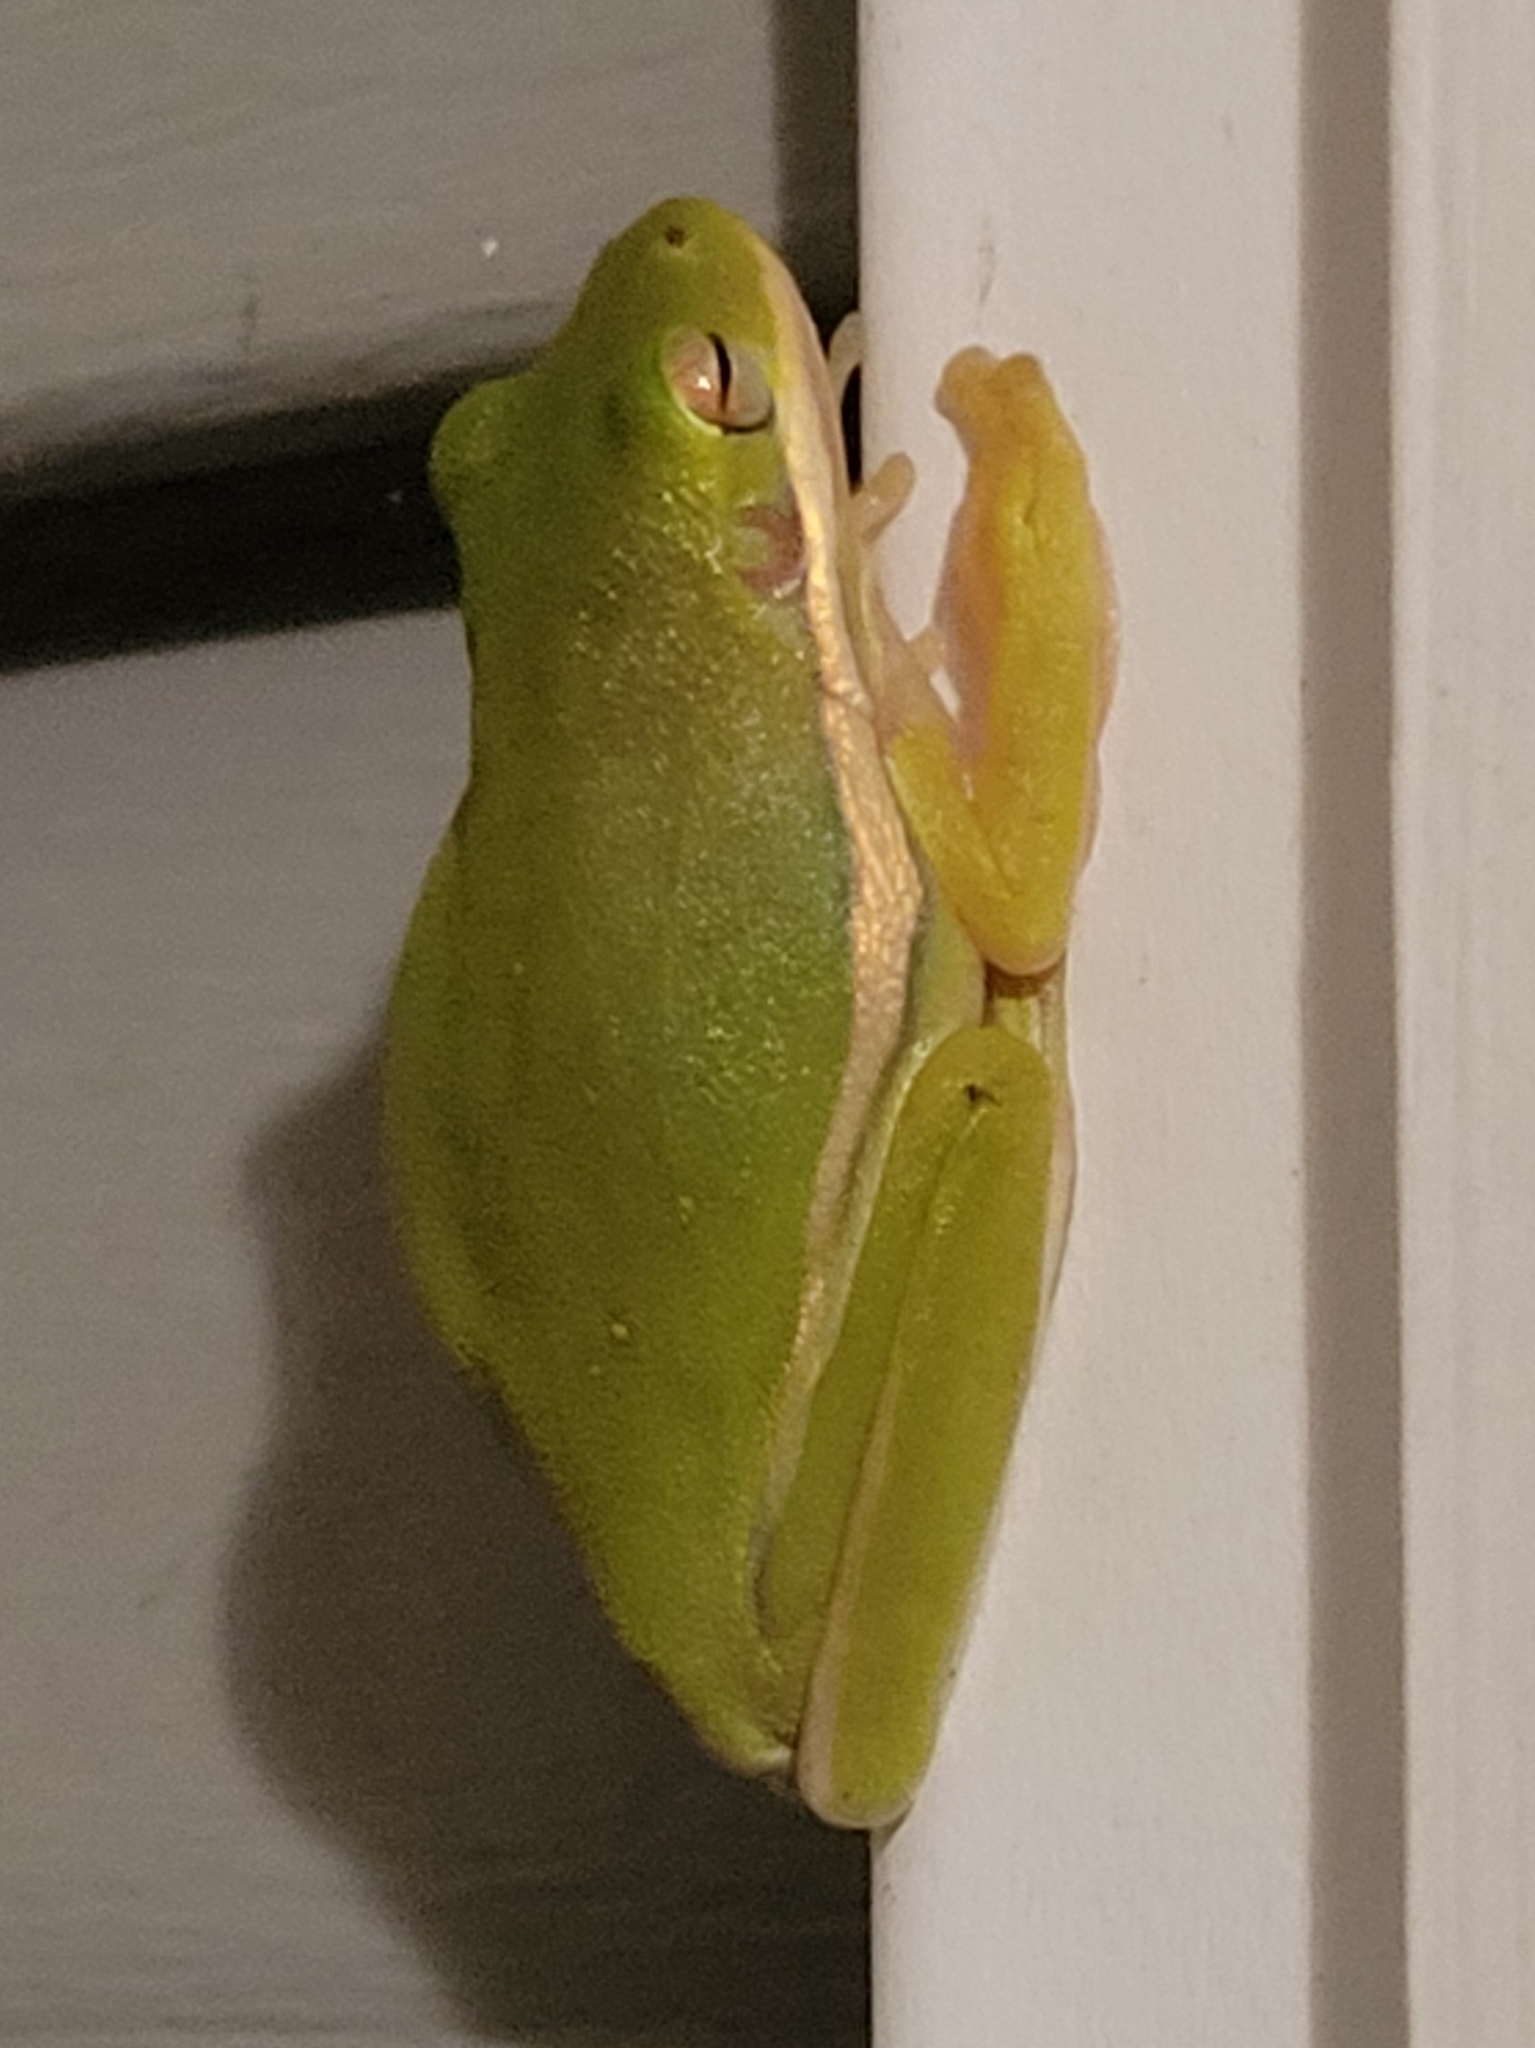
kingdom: Animalia
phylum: Chordata
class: Amphibia
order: Anura
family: Hylidae
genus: Dryophytes
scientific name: Dryophytes cinereus
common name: Green treefrog
